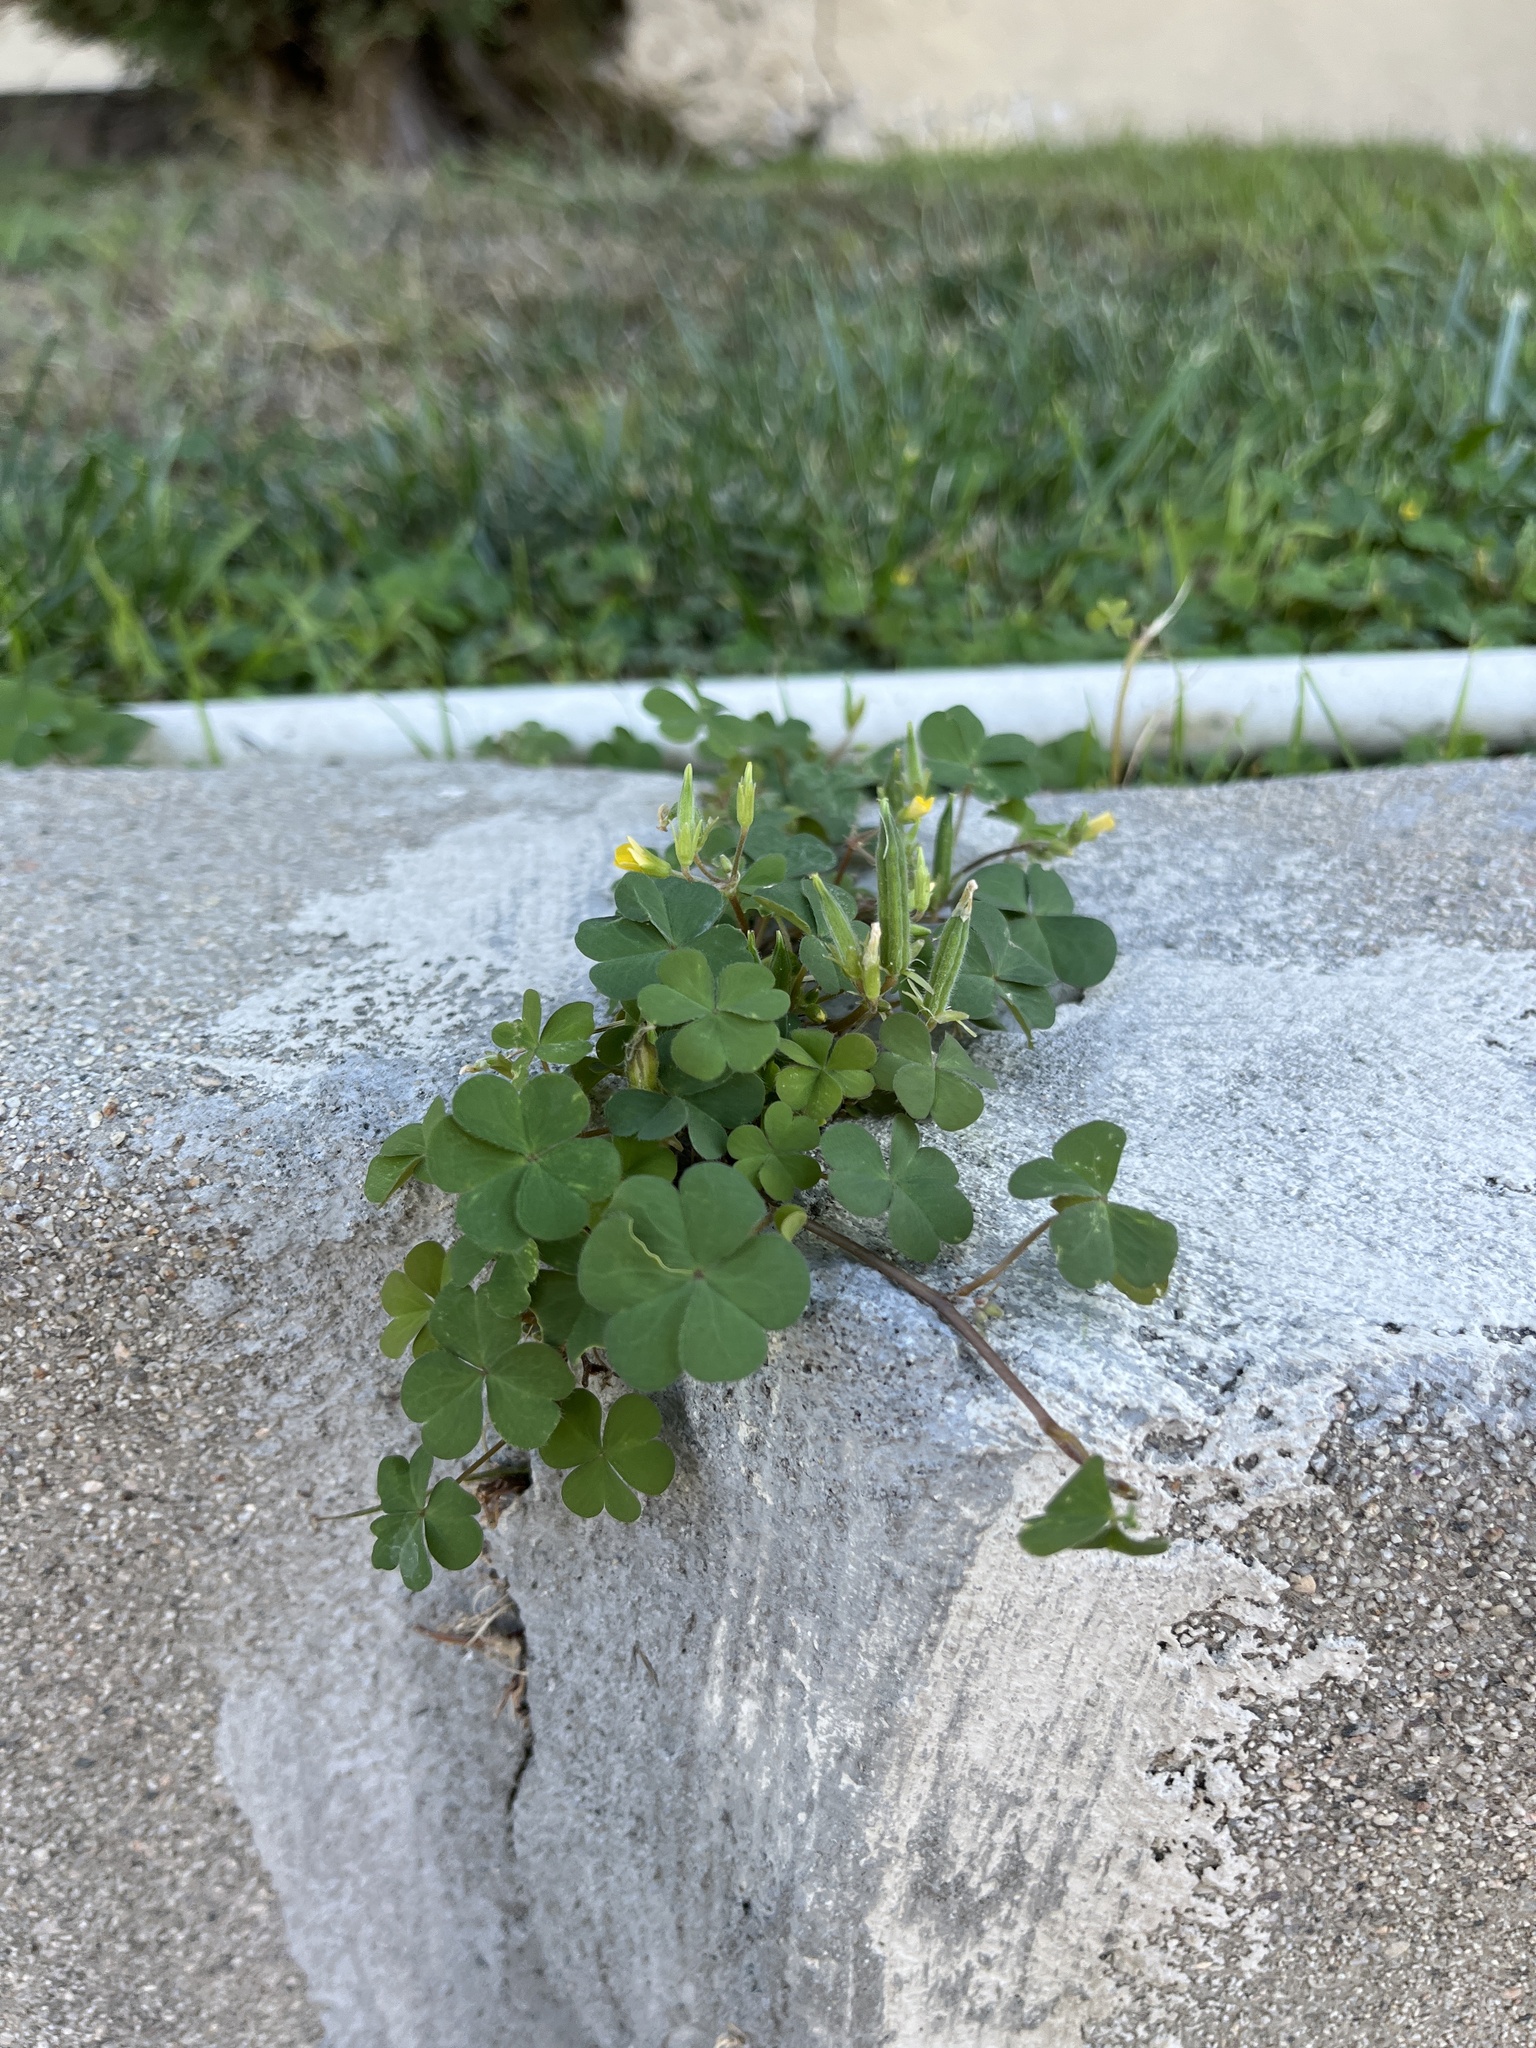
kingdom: Plantae
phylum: Tracheophyta
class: Magnoliopsida
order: Oxalidales
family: Oxalidaceae
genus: Oxalis
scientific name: Oxalis corniculata
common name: Procumbent yellow-sorrel
